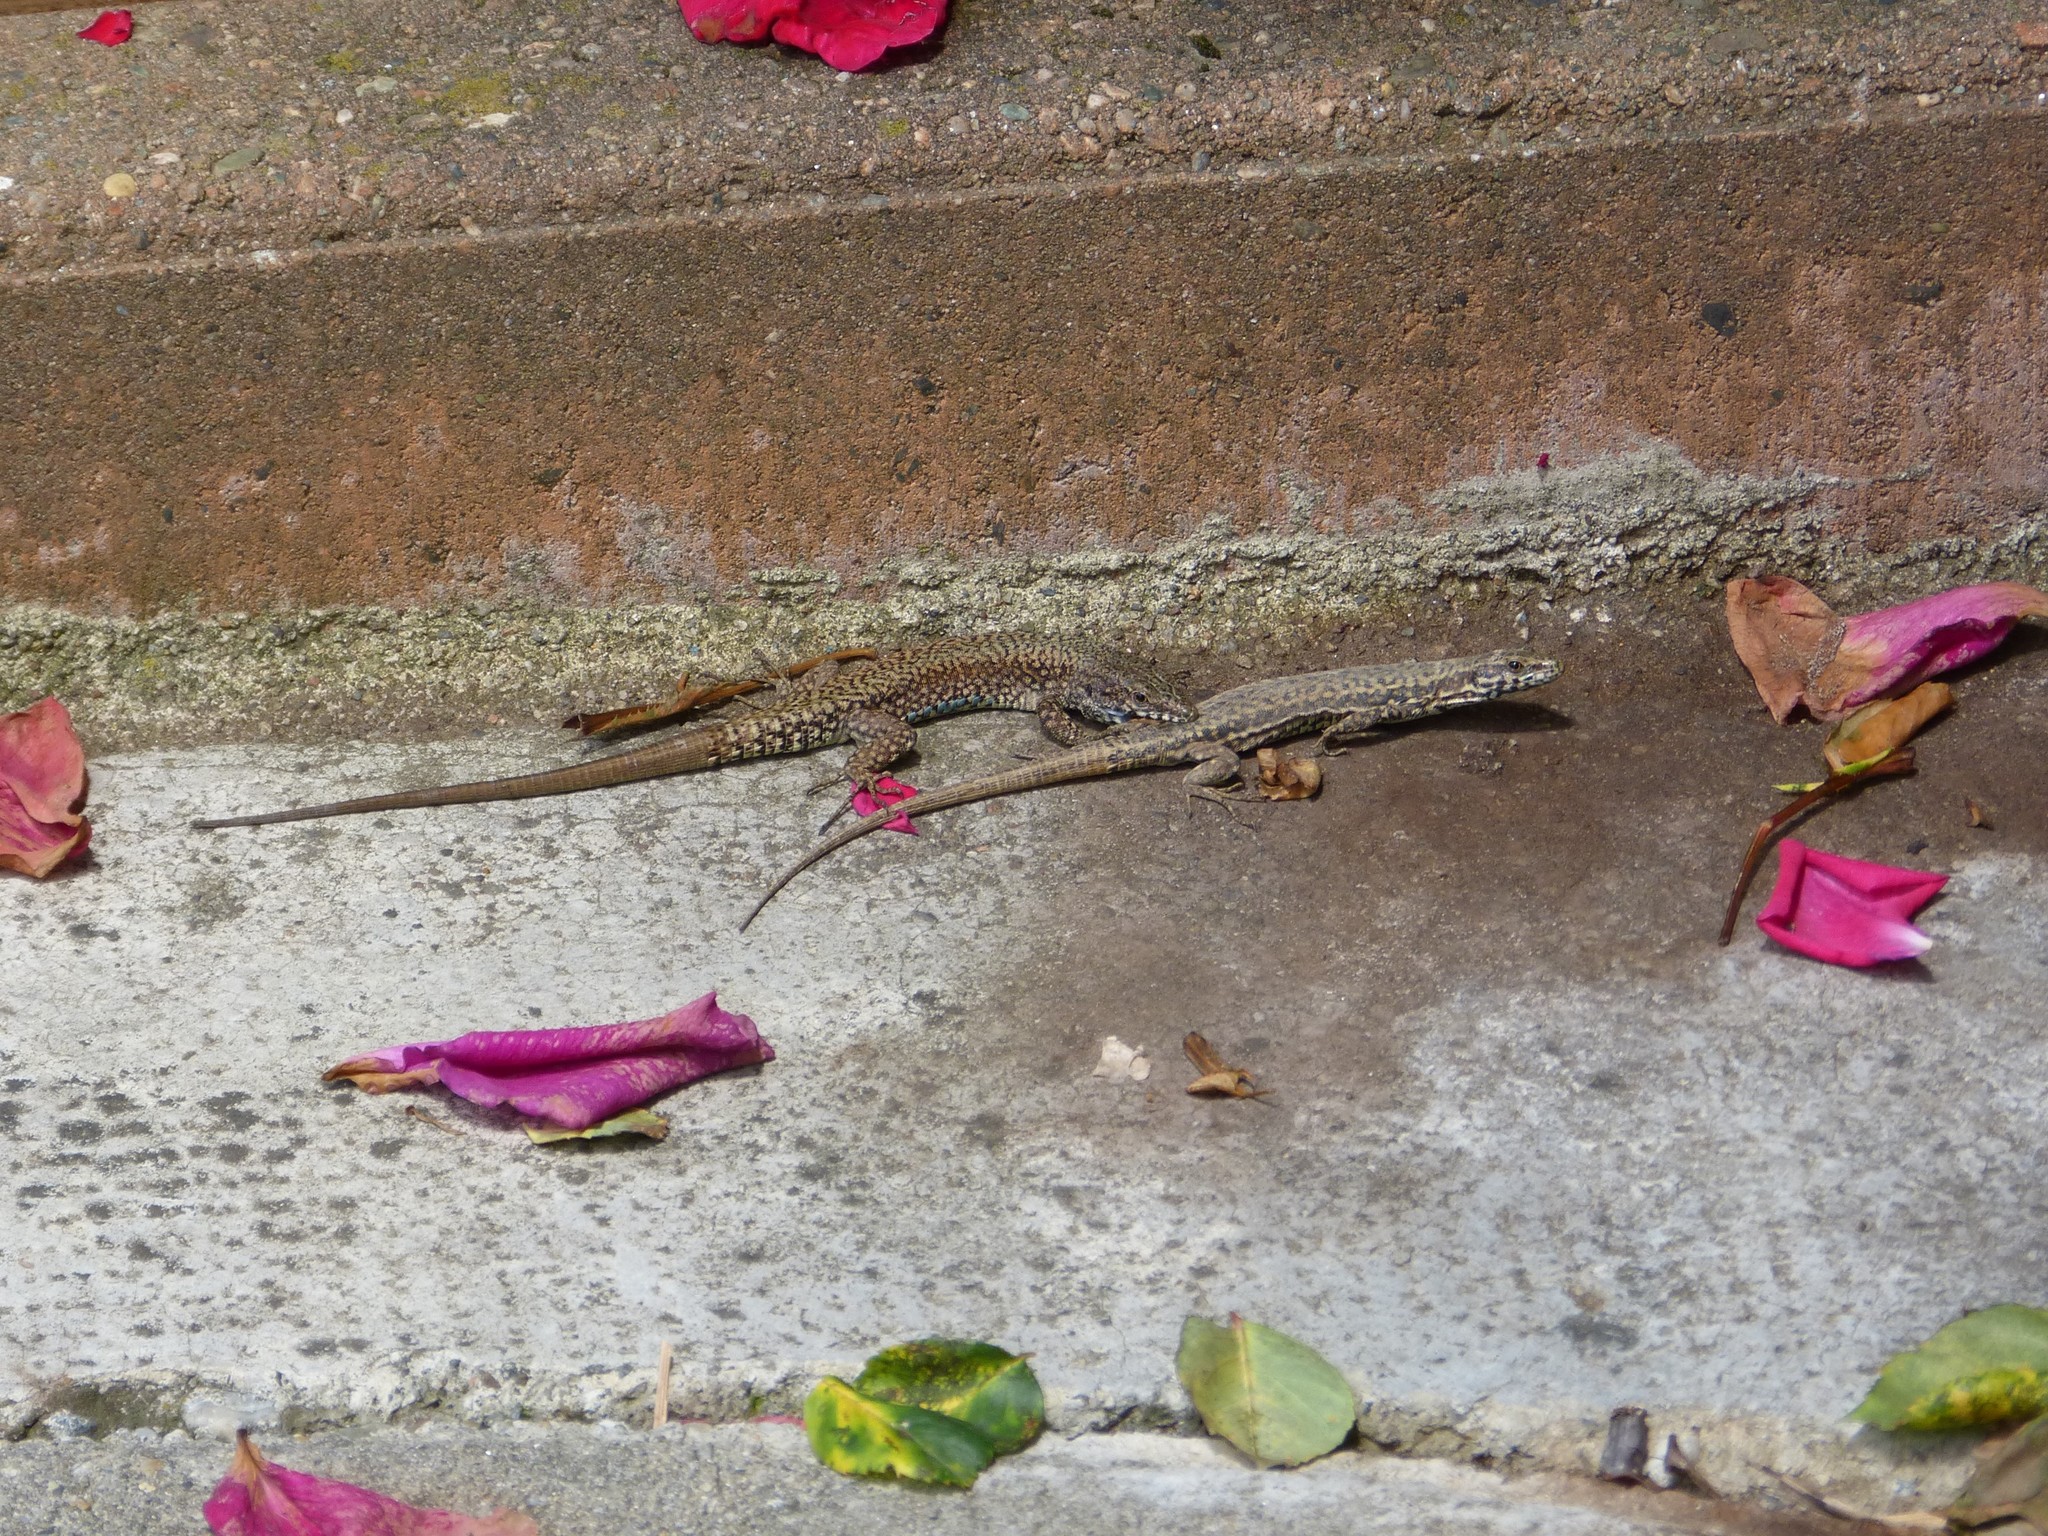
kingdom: Animalia
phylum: Chordata
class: Squamata
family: Lacertidae
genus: Podarcis
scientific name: Podarcis muralis
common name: Common wall lizard
